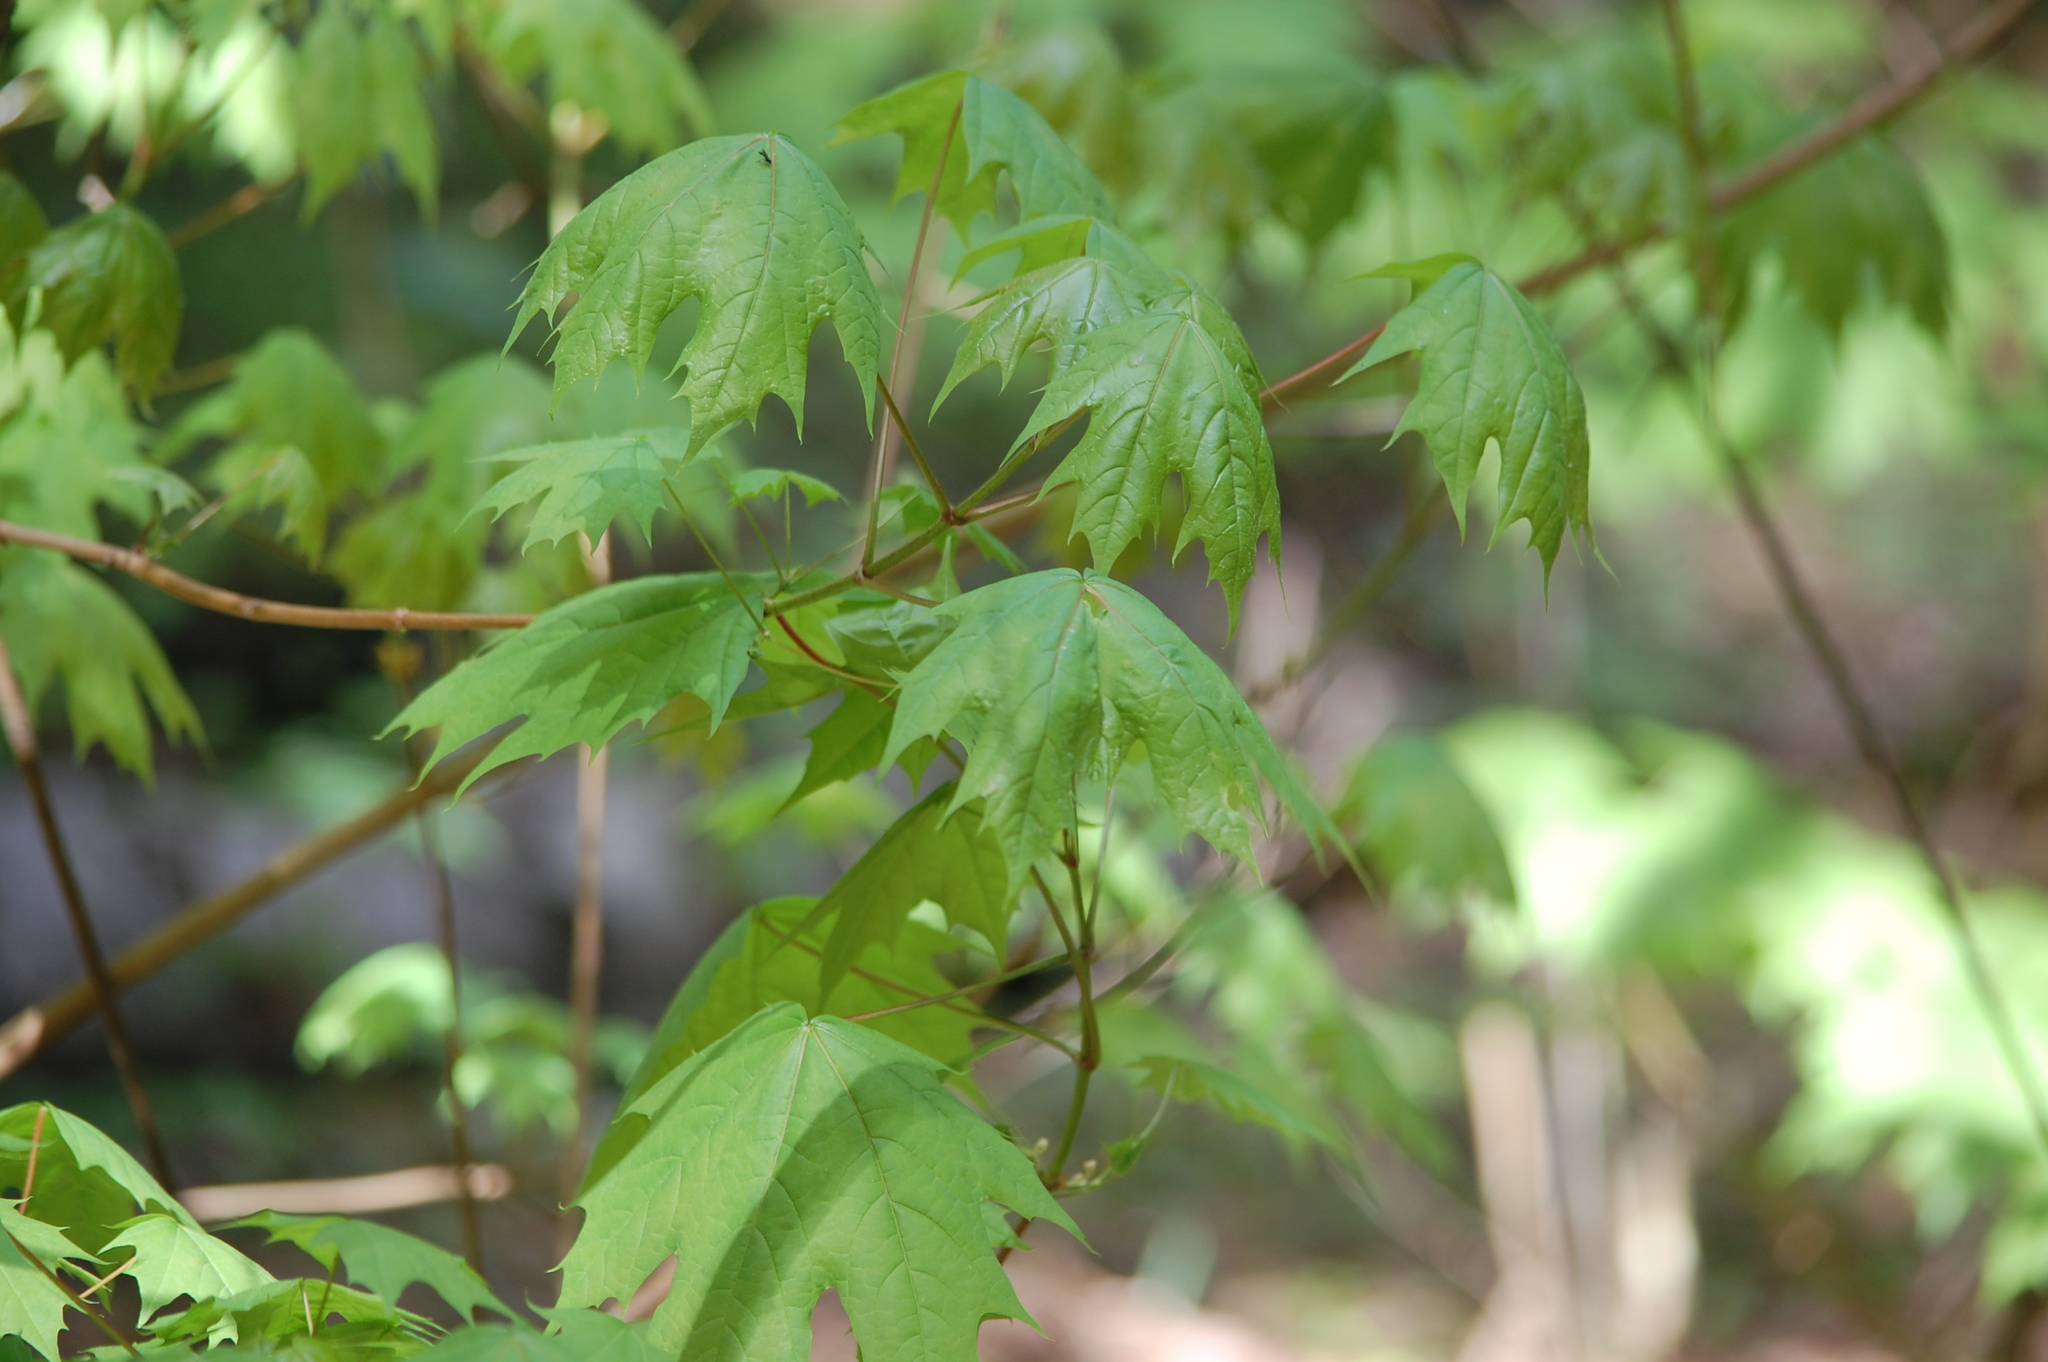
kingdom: Plantae
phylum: Tracheophyta
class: Magnoliopsida
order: Sapindales
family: Sapindaceae
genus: Acer
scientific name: Acer platanoides
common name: Norway maple
